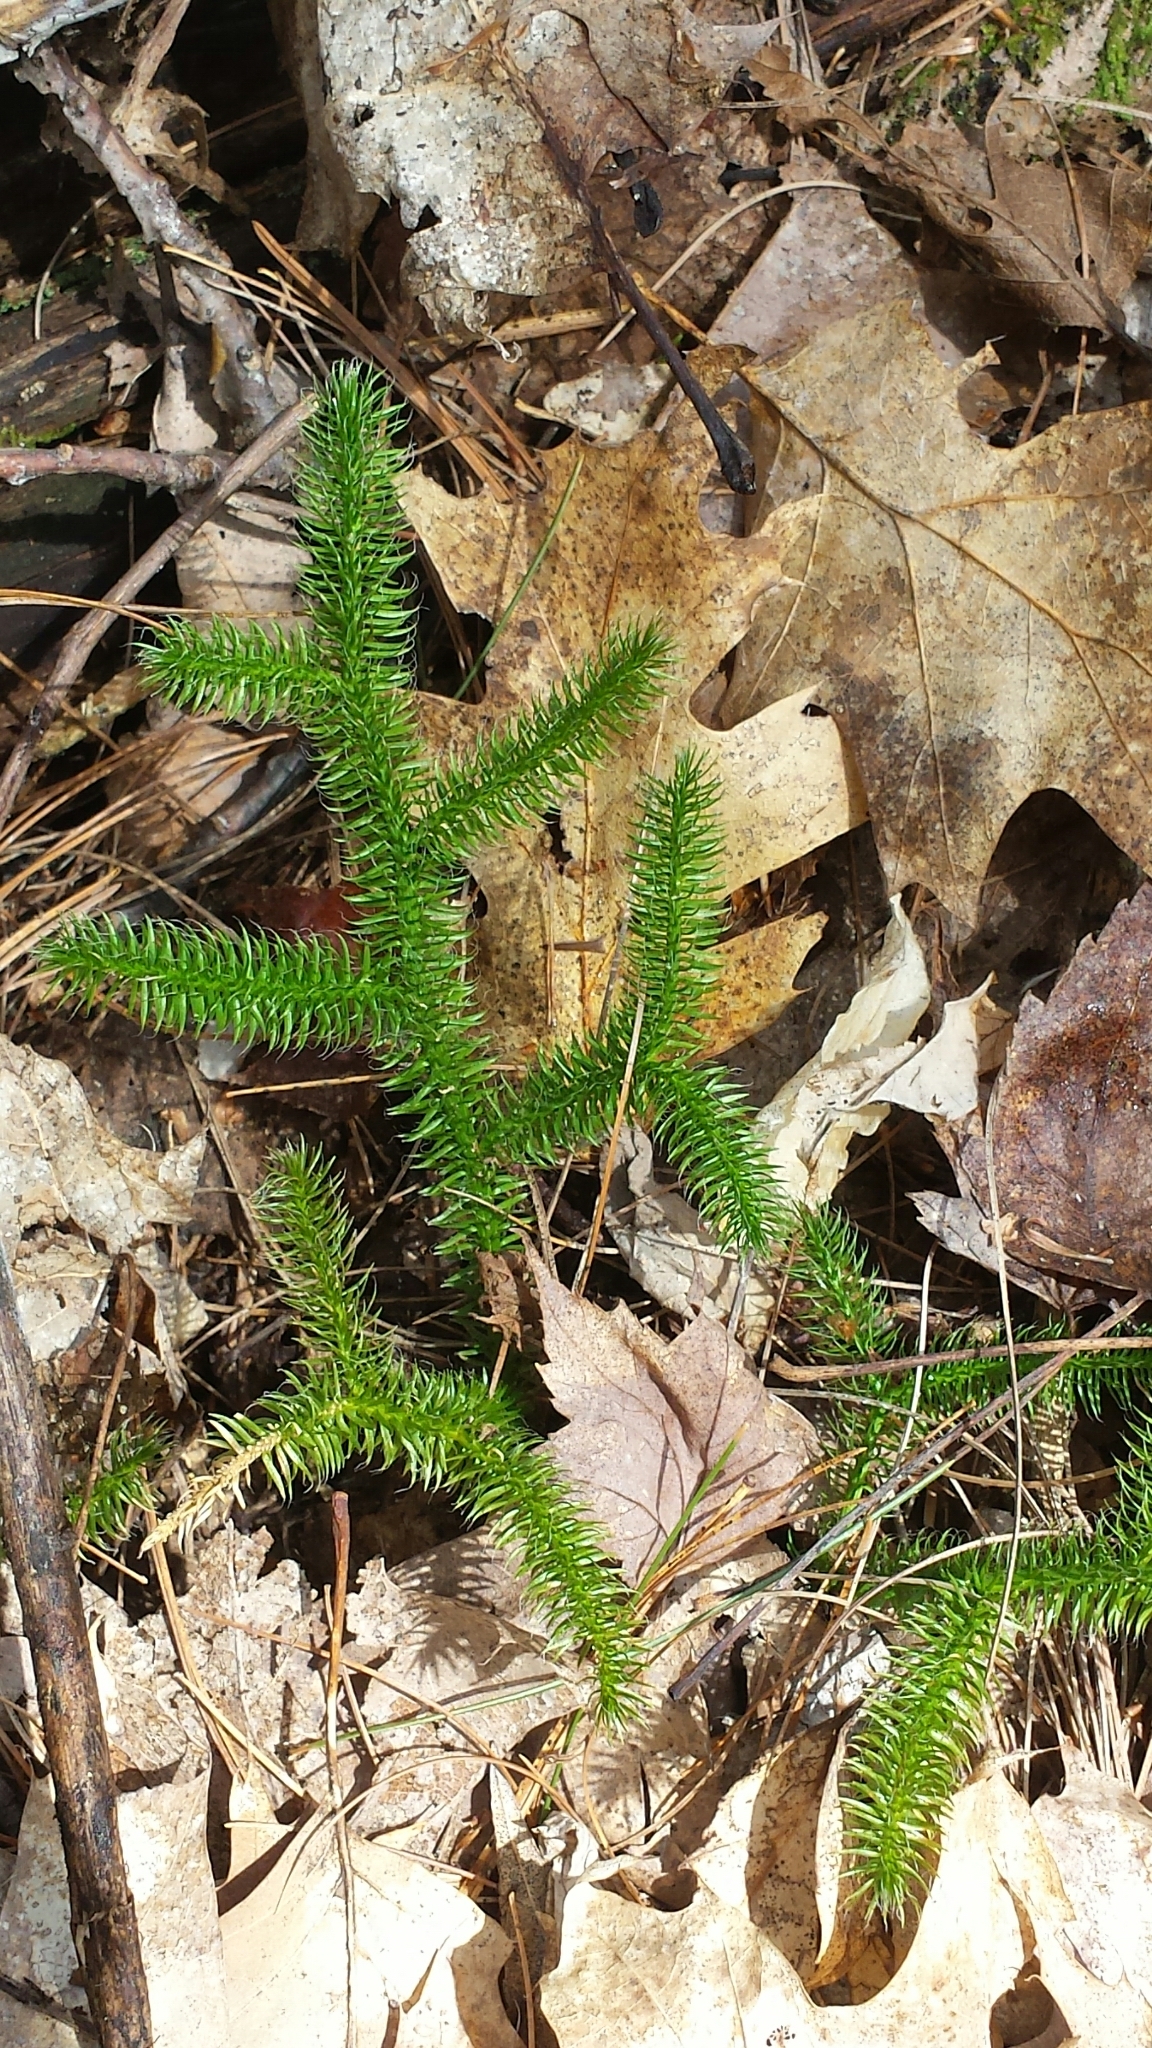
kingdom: Plantae
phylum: Tracheophyta
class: Lycopodiopsida
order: Lycopodiales
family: Lycopodiaceae
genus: Lycopodium
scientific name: Lycopodium clavatum
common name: Stag's-horn clubmoss
